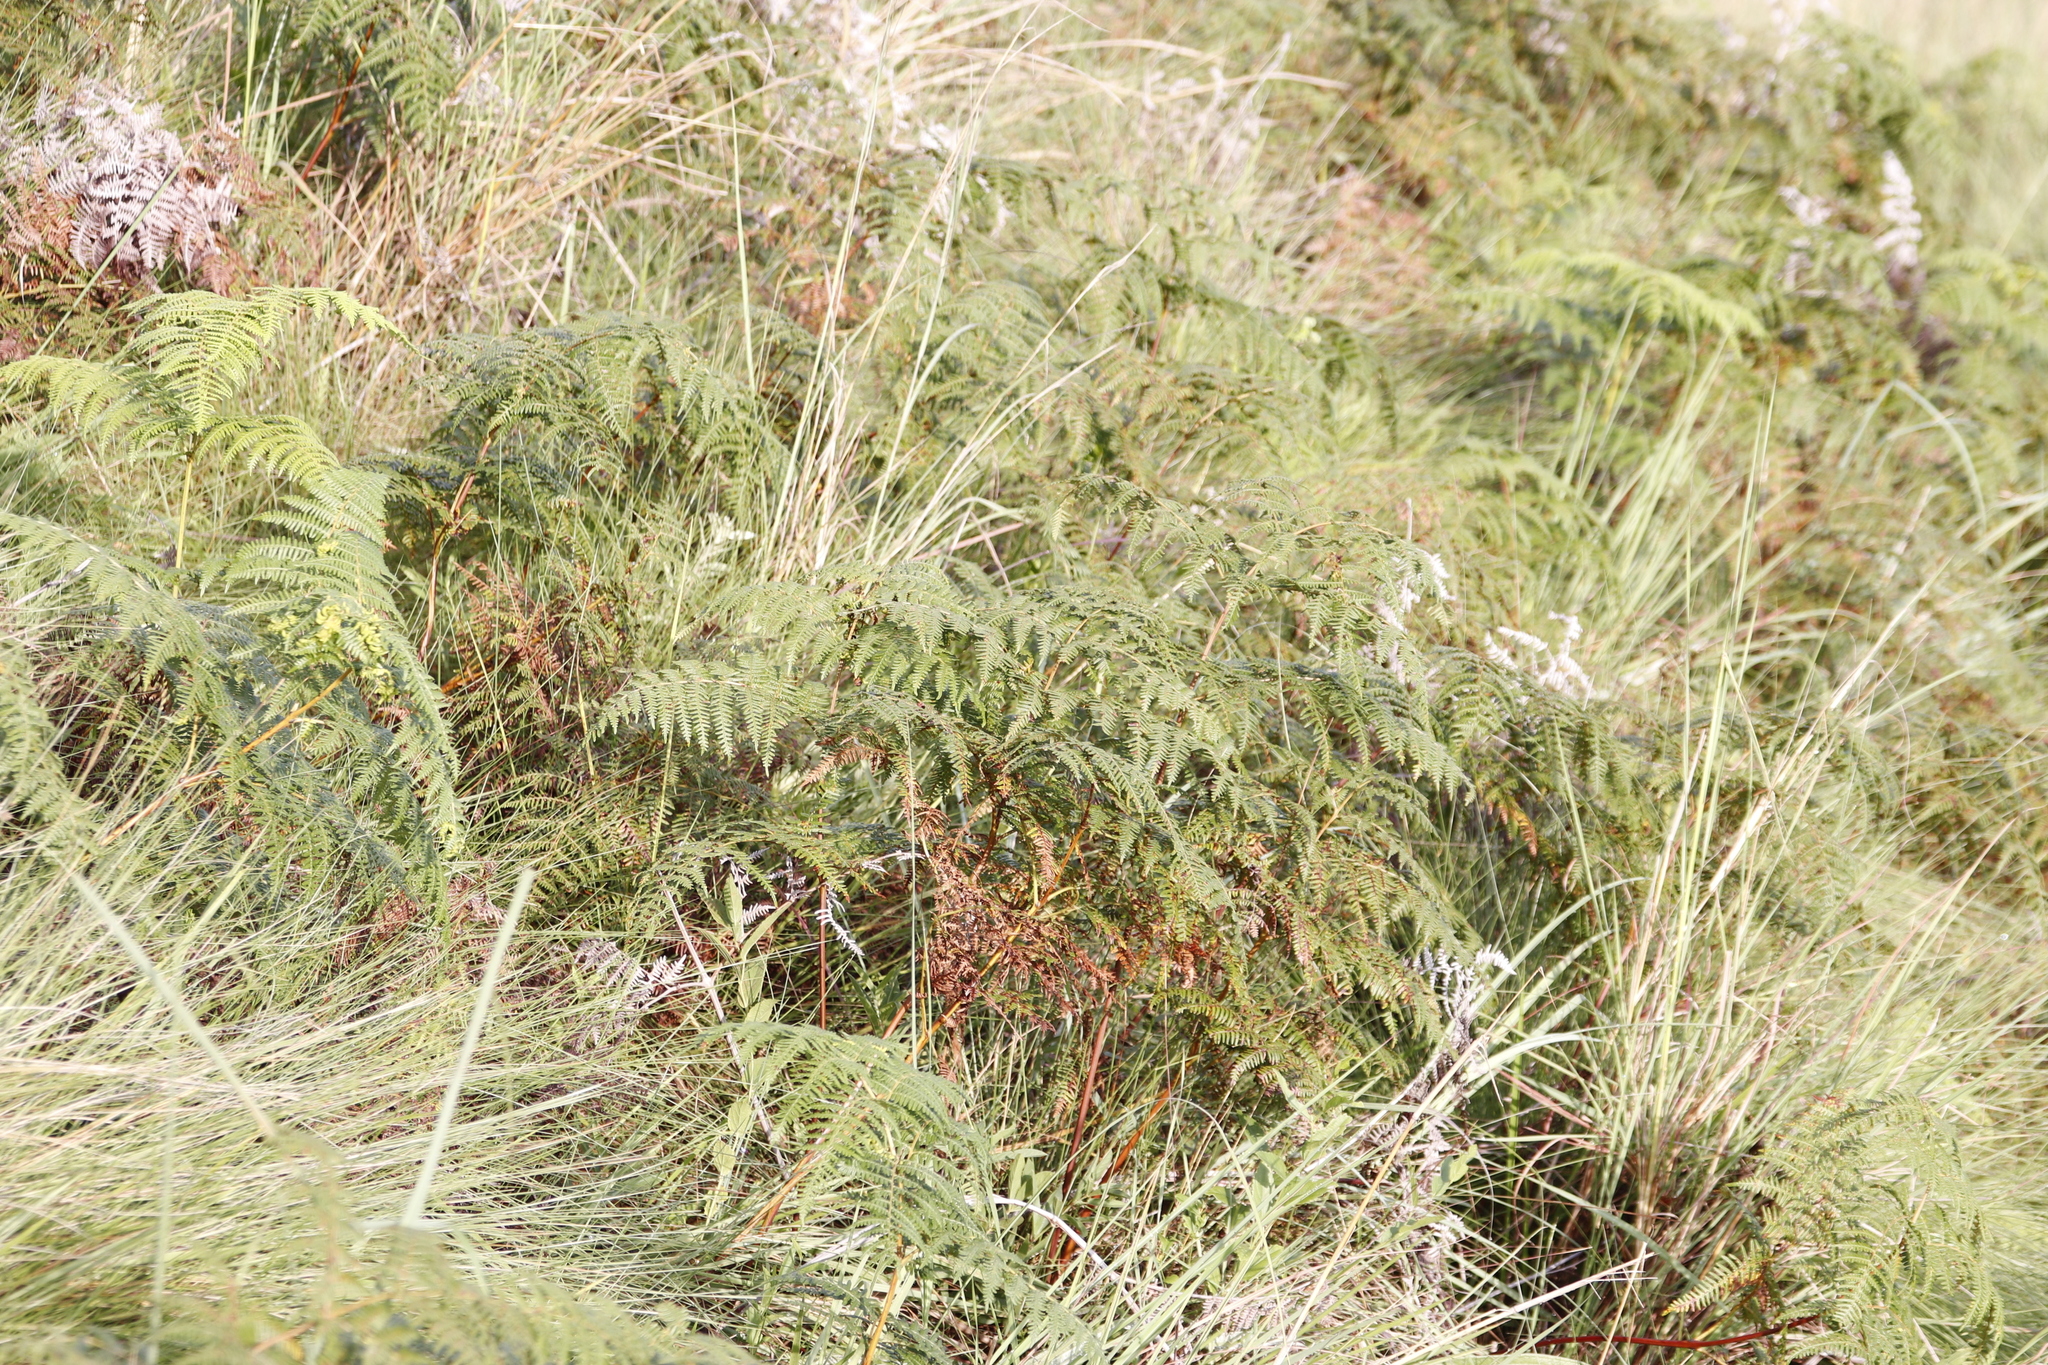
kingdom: Plantae
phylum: Tracheophyta
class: Polypodiopsida
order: Polypodiales
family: Dennstaedtiaceae
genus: Pteridium
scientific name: Pteridium aquilinum
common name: Bracken
